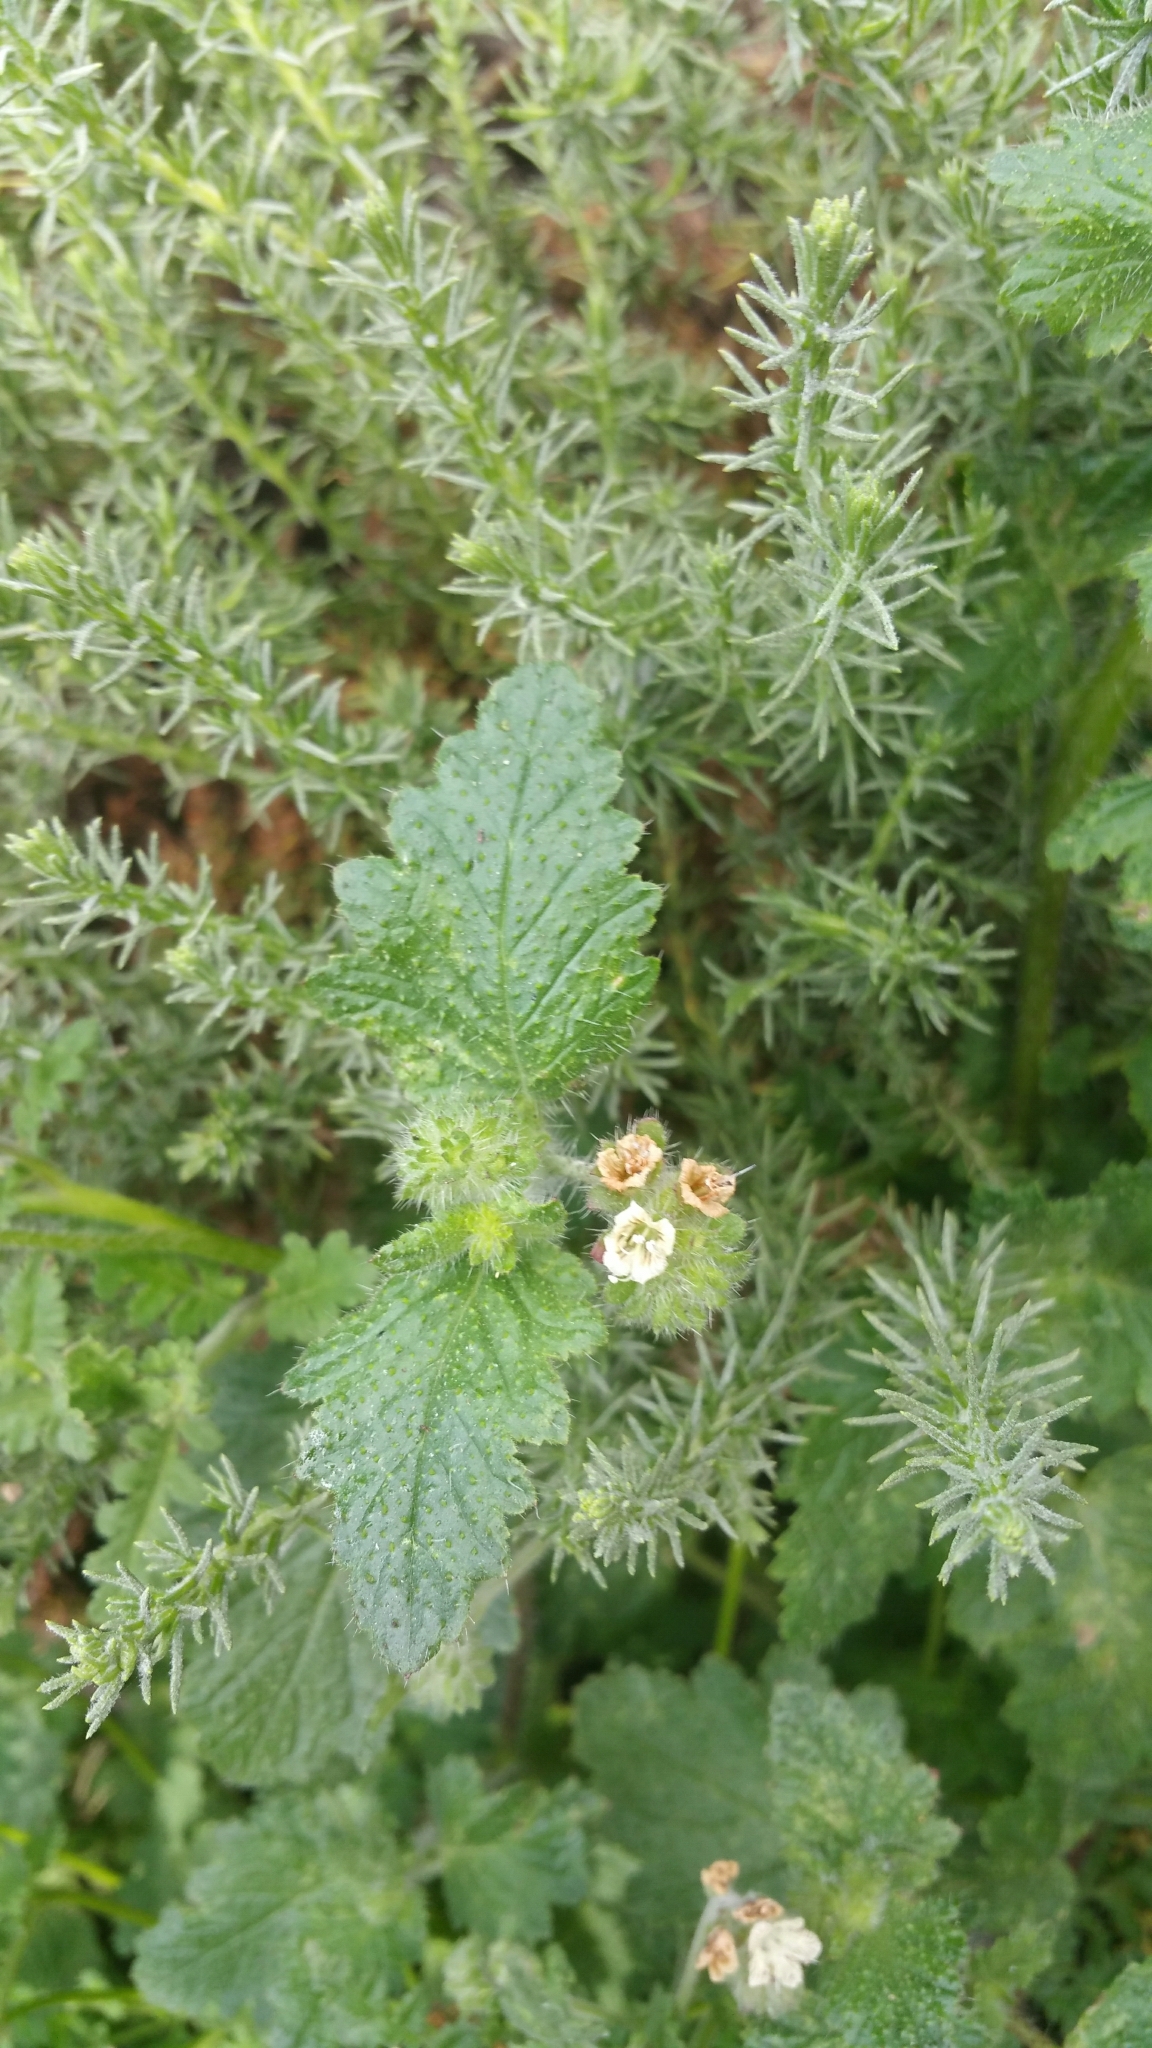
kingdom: Plantae
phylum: Tracheophyta
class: Magnoliopsida
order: Boraginales
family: Hydrophyllaceae
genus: Phacelia
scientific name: Phacelia malvifolia
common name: Mallow-leaf phacelia
